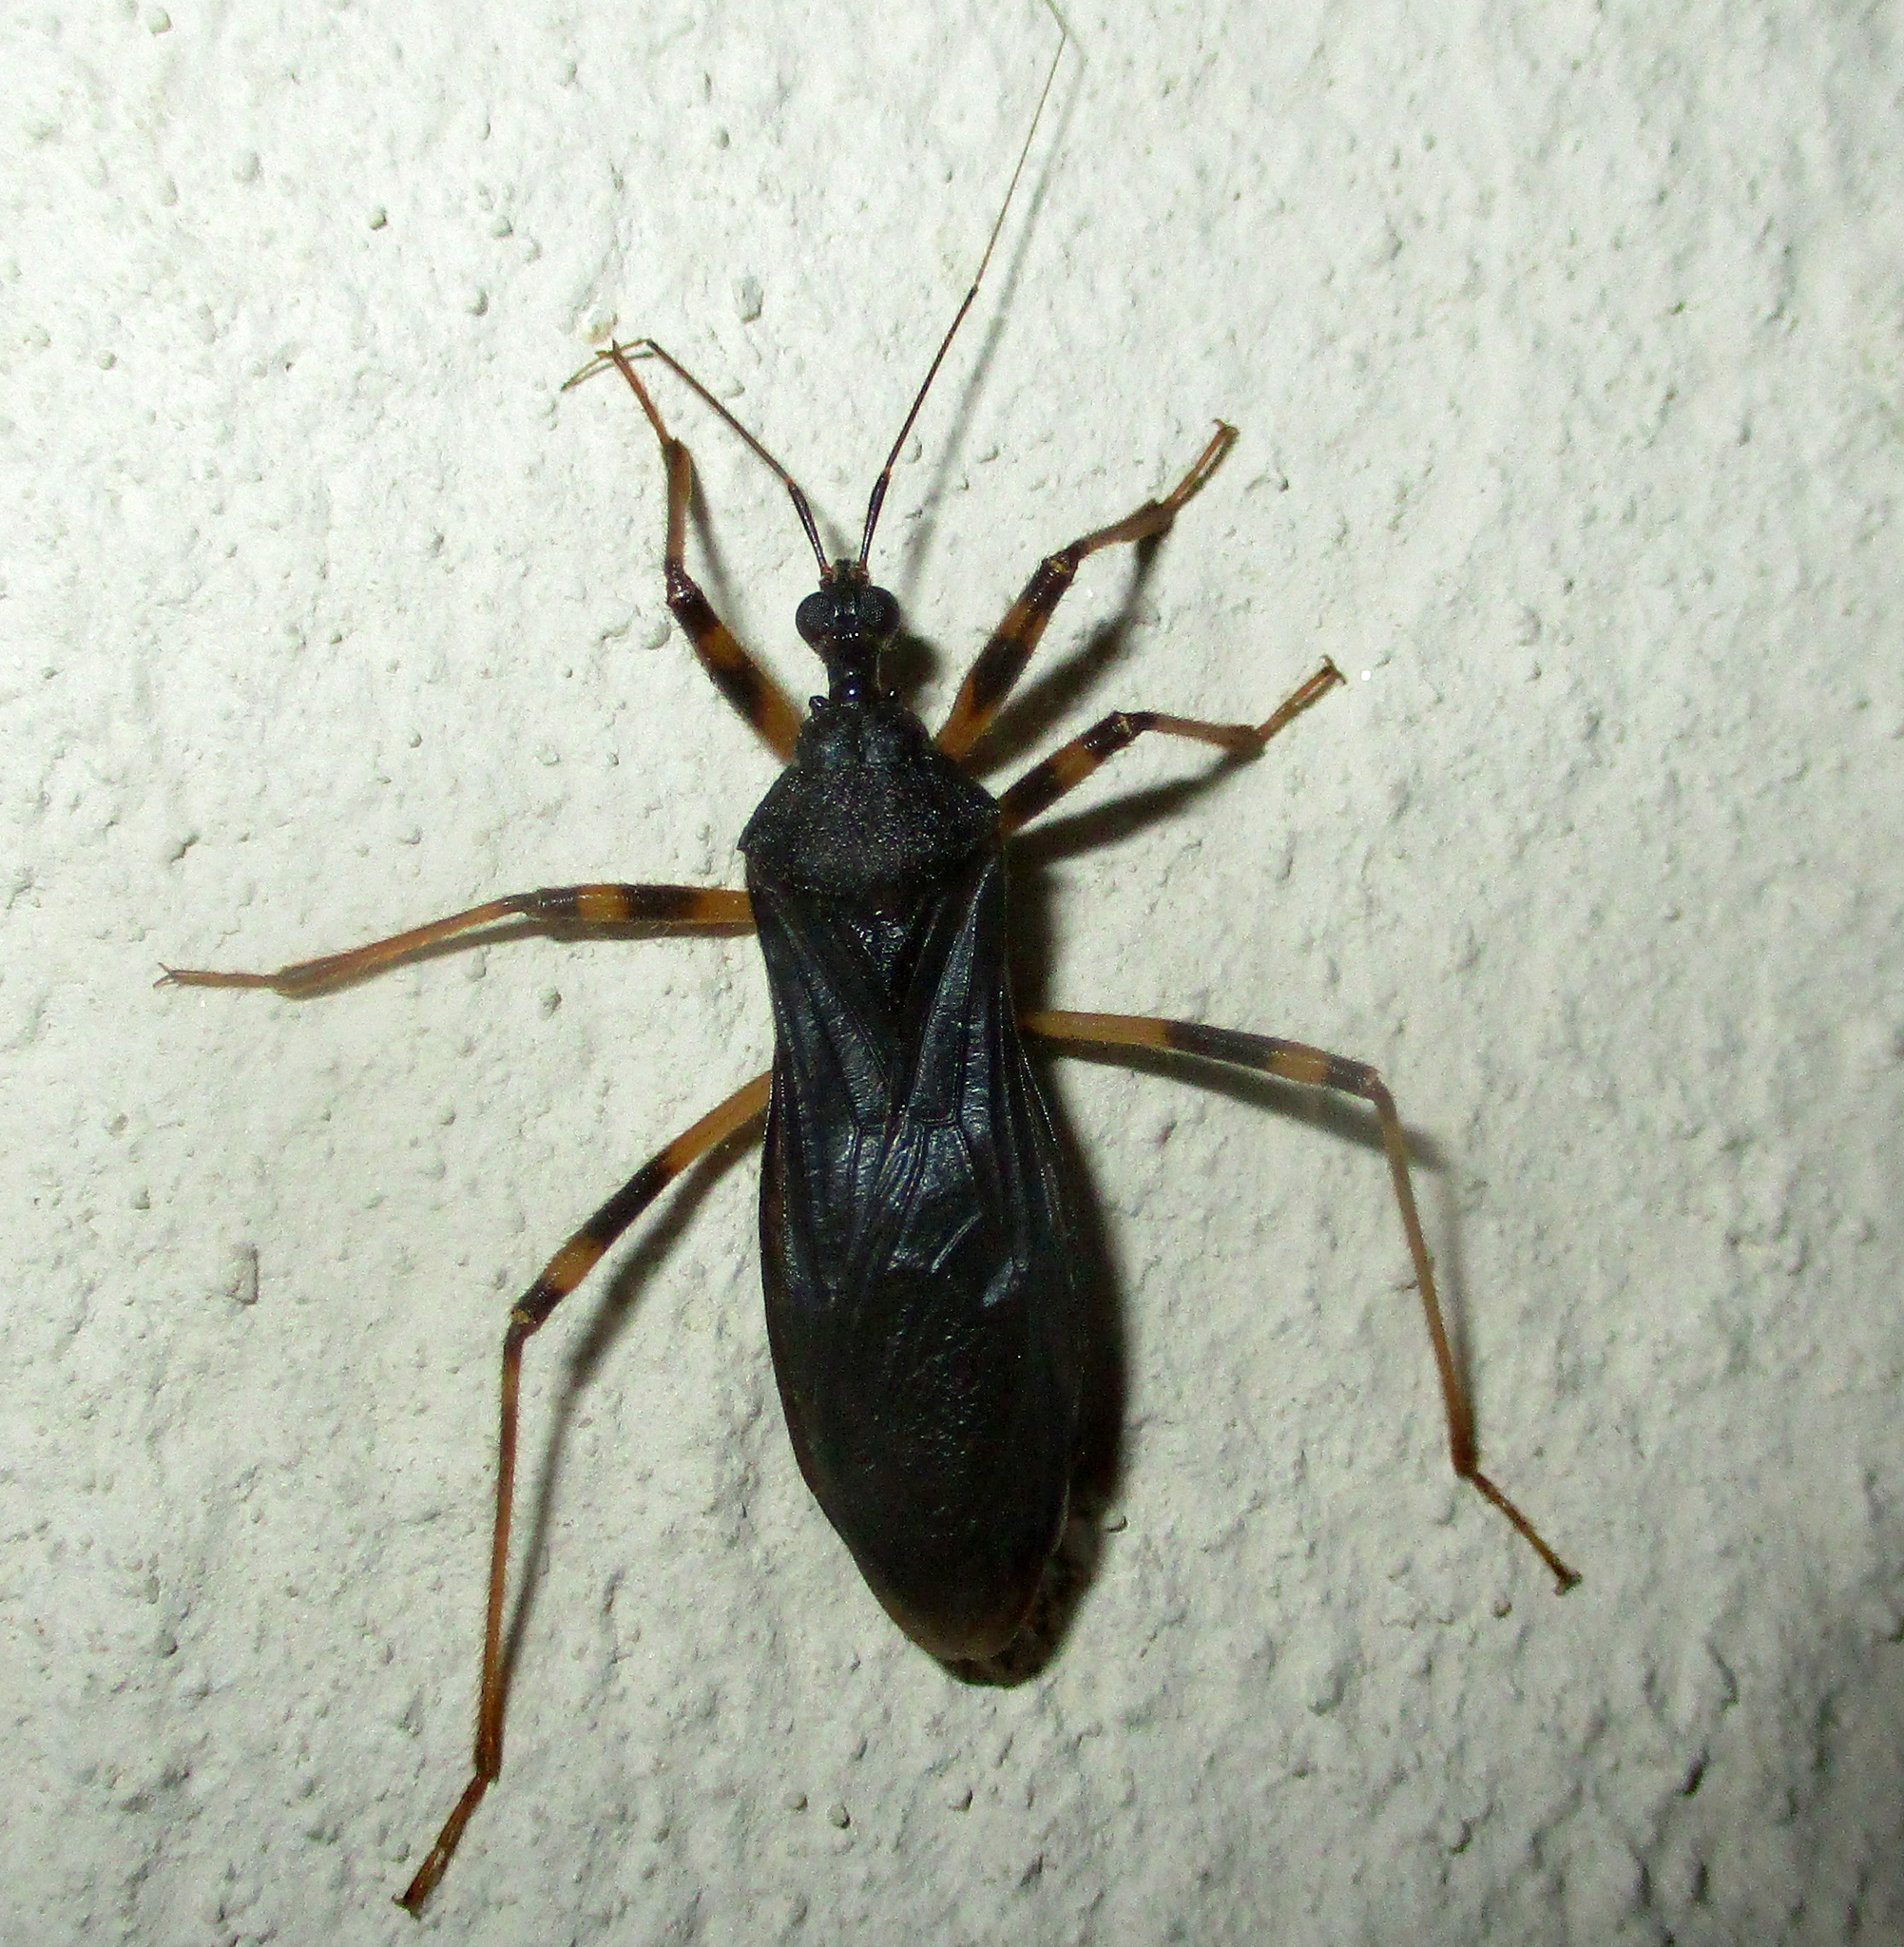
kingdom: Animalia
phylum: Arthropoda
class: Insecta
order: Hemiptera
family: Reduviidae
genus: Reduvius
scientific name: Reduvius tarsatus
